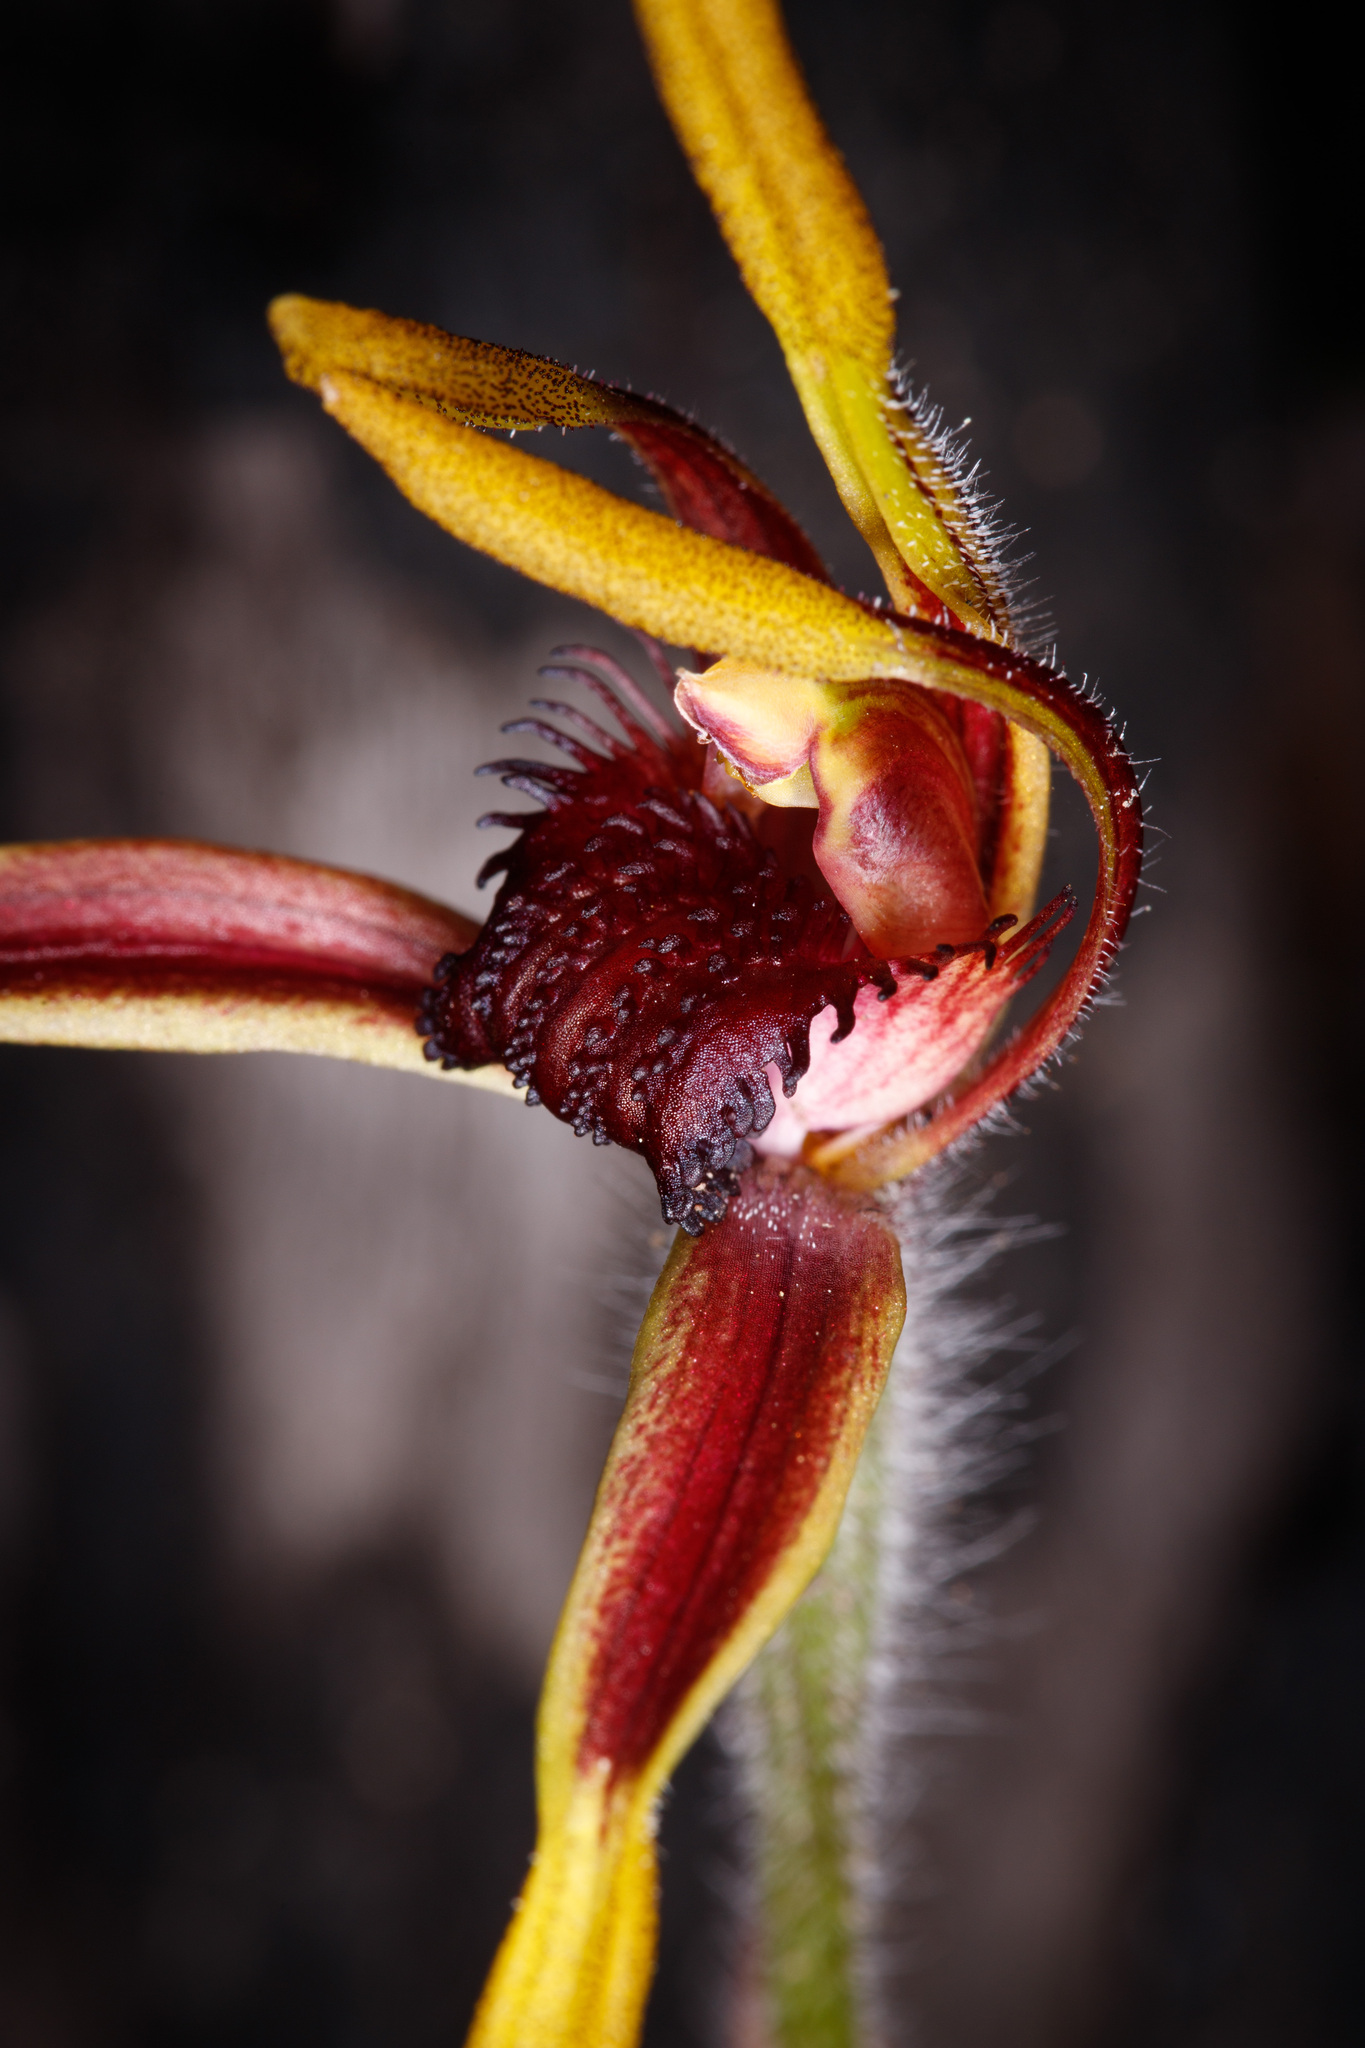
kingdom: Plantae
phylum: Tracheophyta
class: Liliopsida
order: Asparagales
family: Orchidaceae
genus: Caladenia
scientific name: Caladenia arrecta
